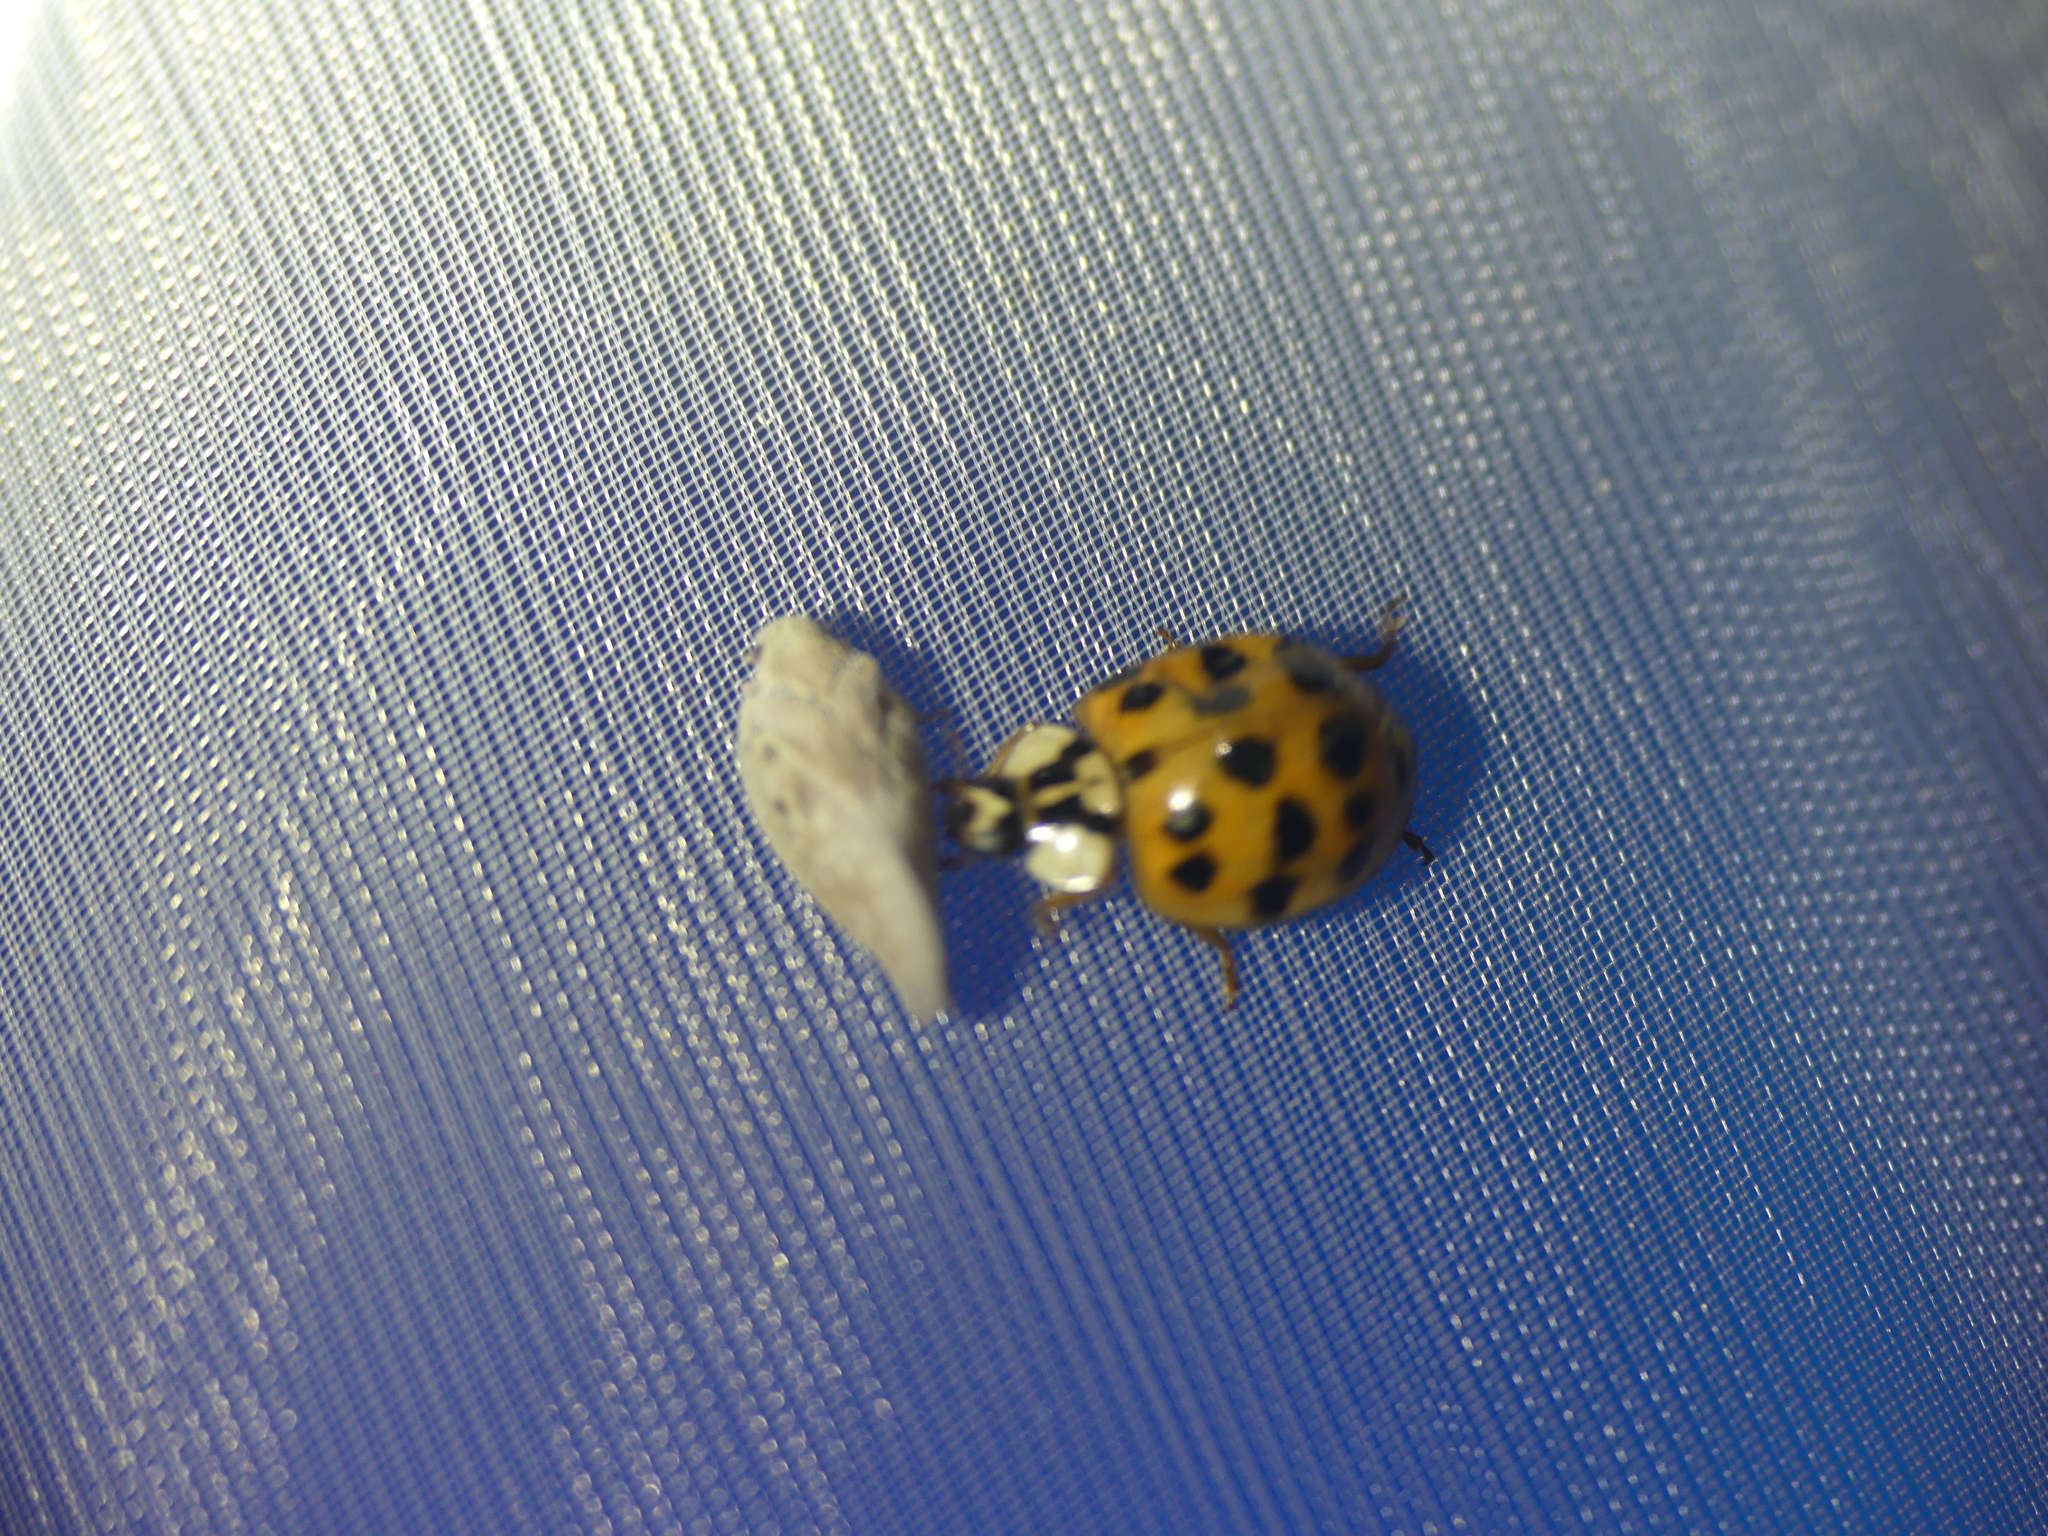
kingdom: Animalia
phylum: Arthropoda
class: Insecta
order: Coleoptera
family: Coccinellidae
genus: Harmonia
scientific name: Harmonia axyridis
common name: Harlequin ladybird
